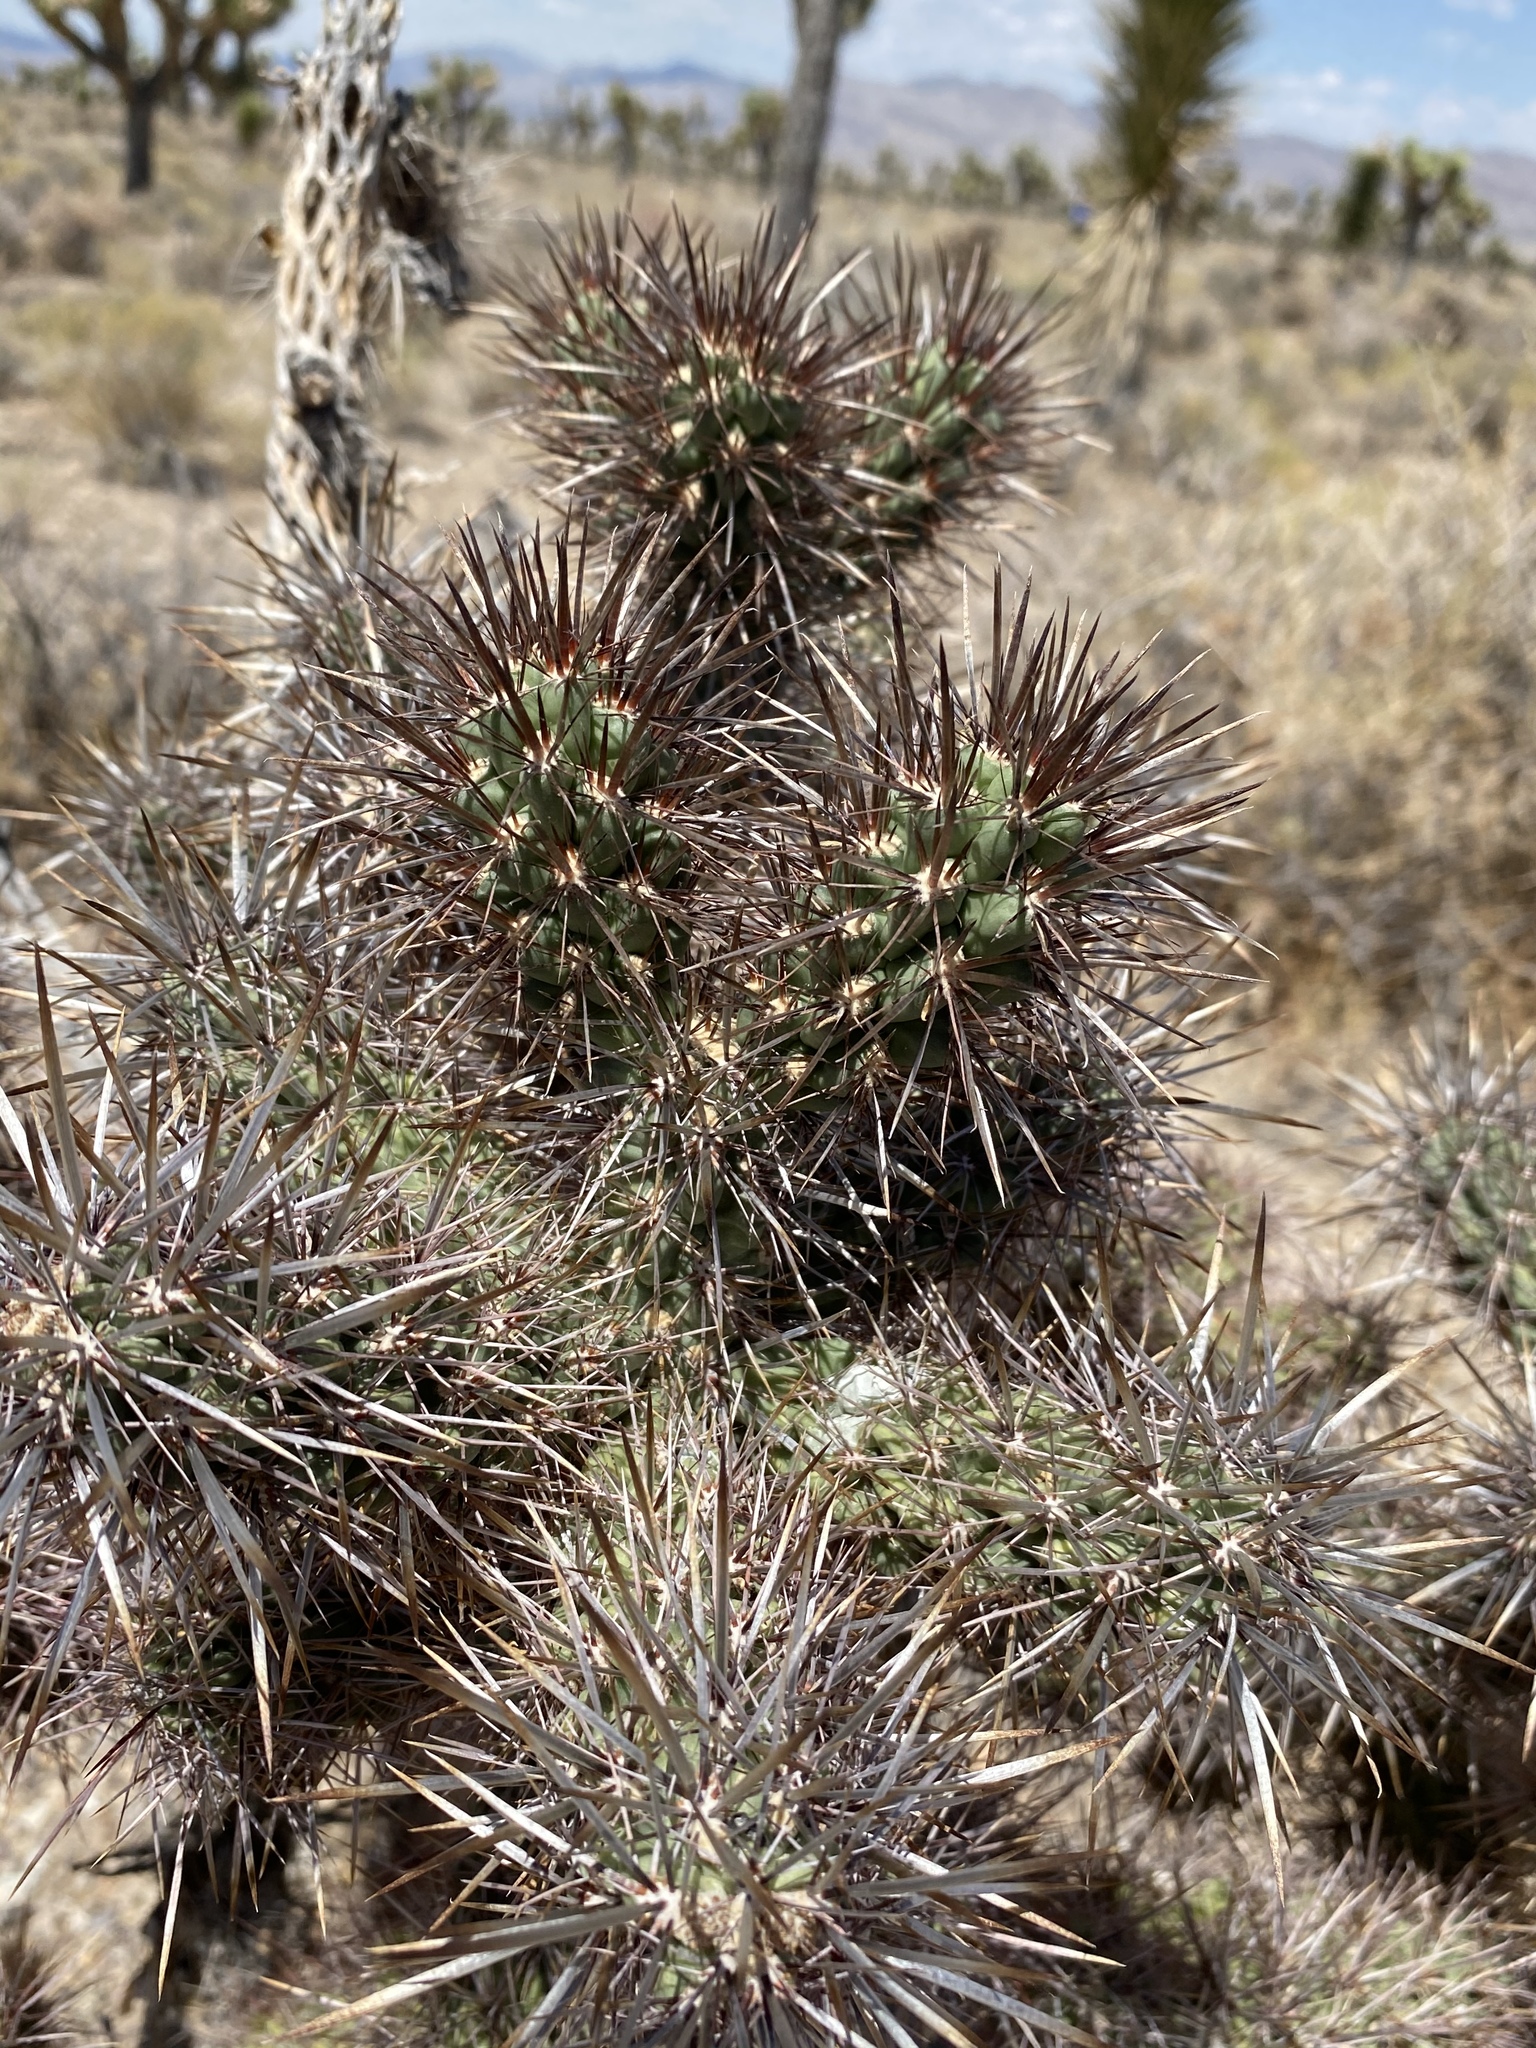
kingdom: Plantae
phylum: Tracheophyta
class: Magnoliopsida
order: Caryophyllales
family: Cactaceae
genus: Cylindropuntia
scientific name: Cylindropuntia echinocarpa
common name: Ground cholla
